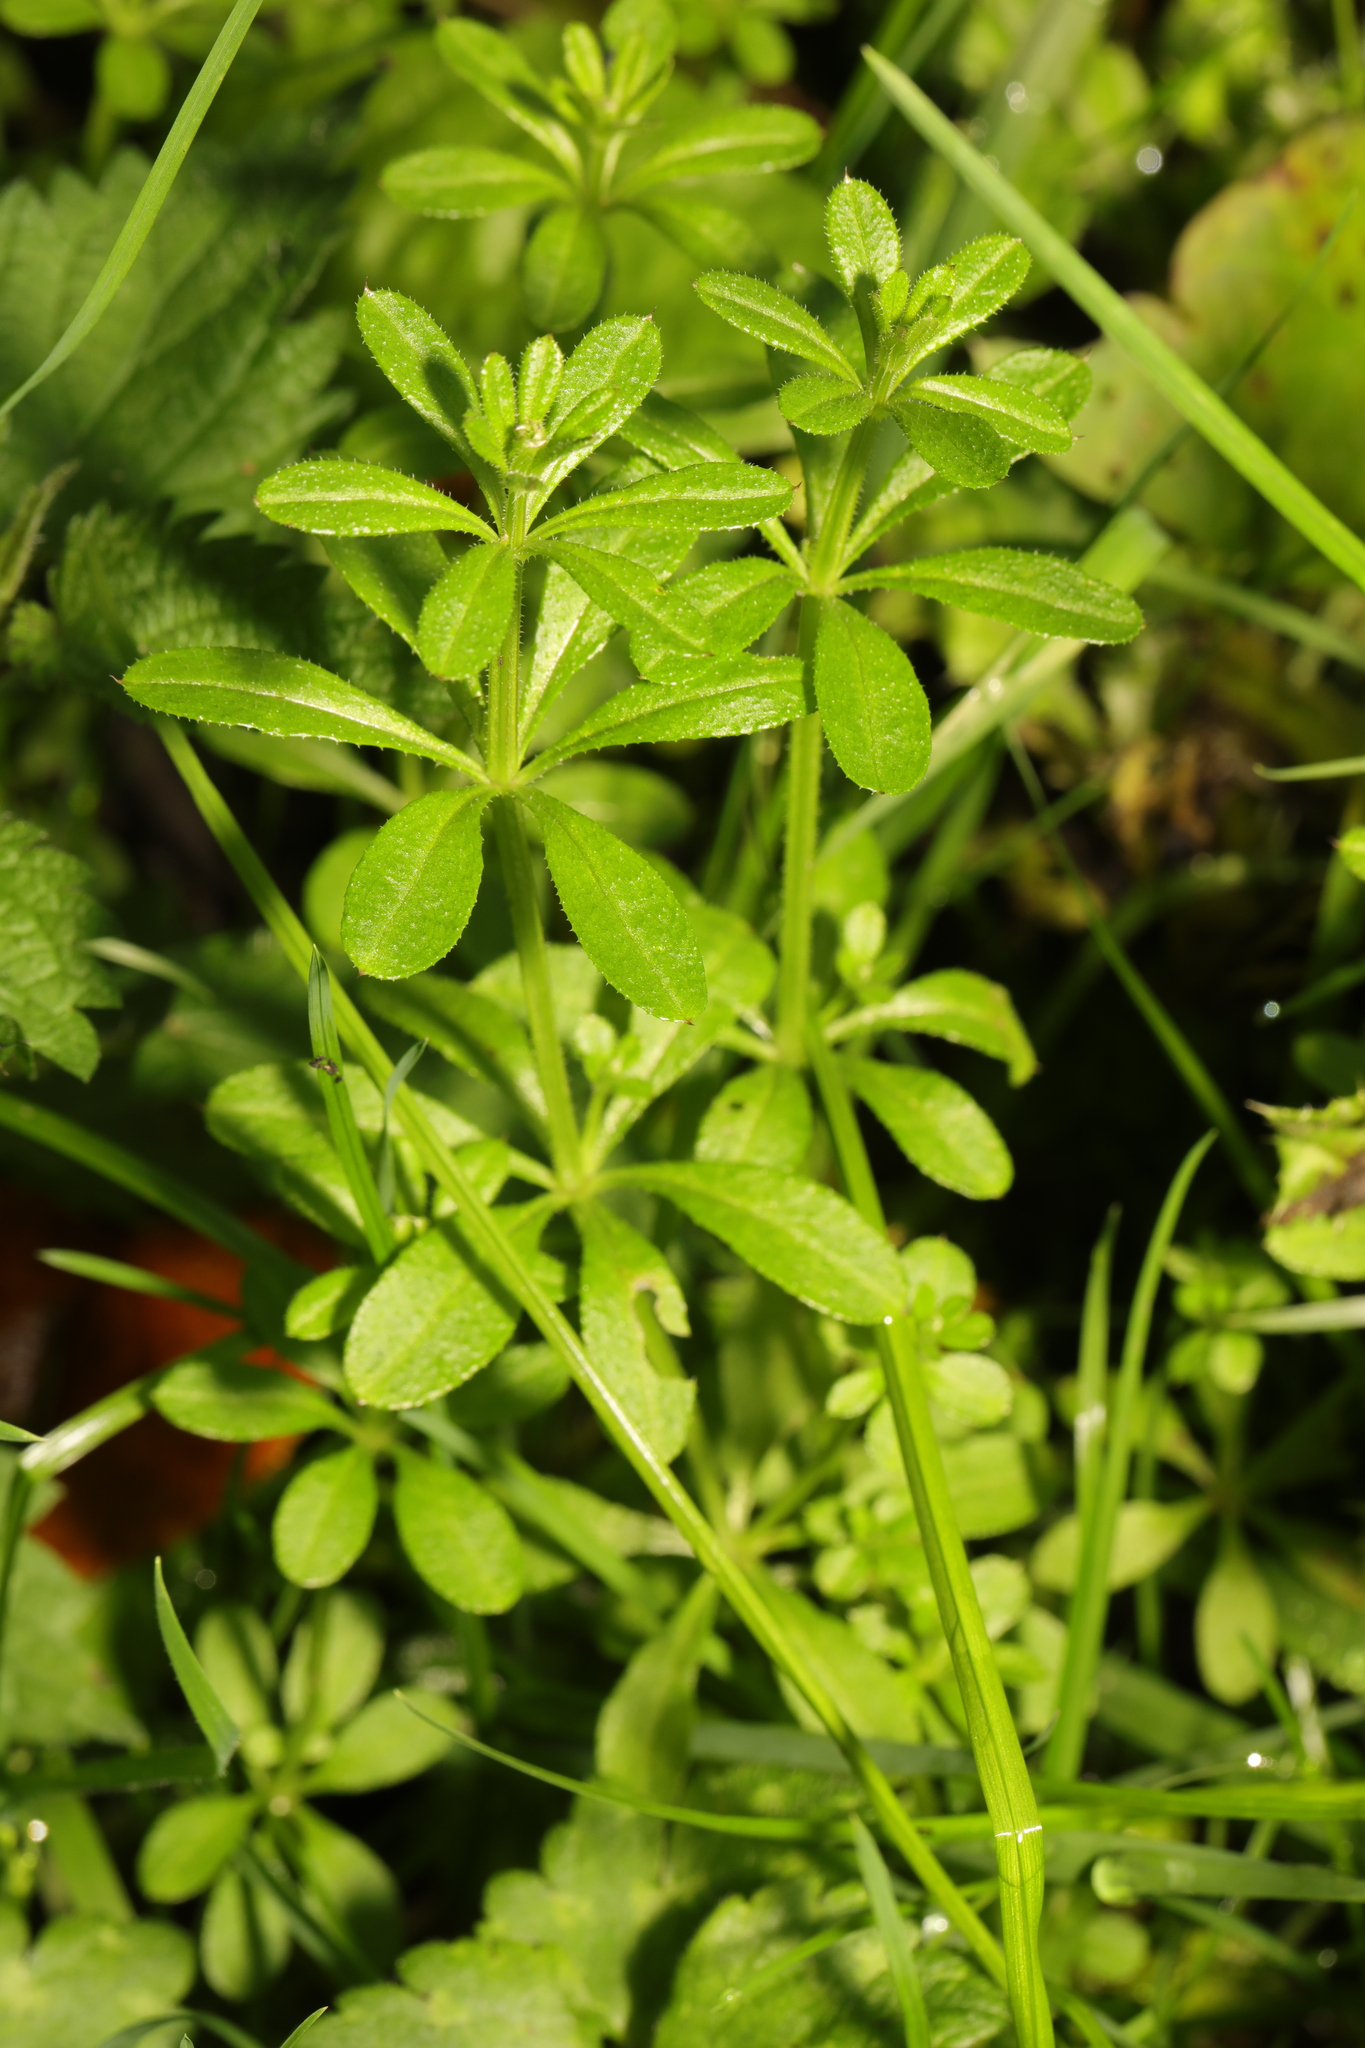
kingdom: Plantae
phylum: Tracheophyta
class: Magnoliopsida
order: Gentianales
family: Rubiaceae
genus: Galium
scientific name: Galium aparine
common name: Cleavers
